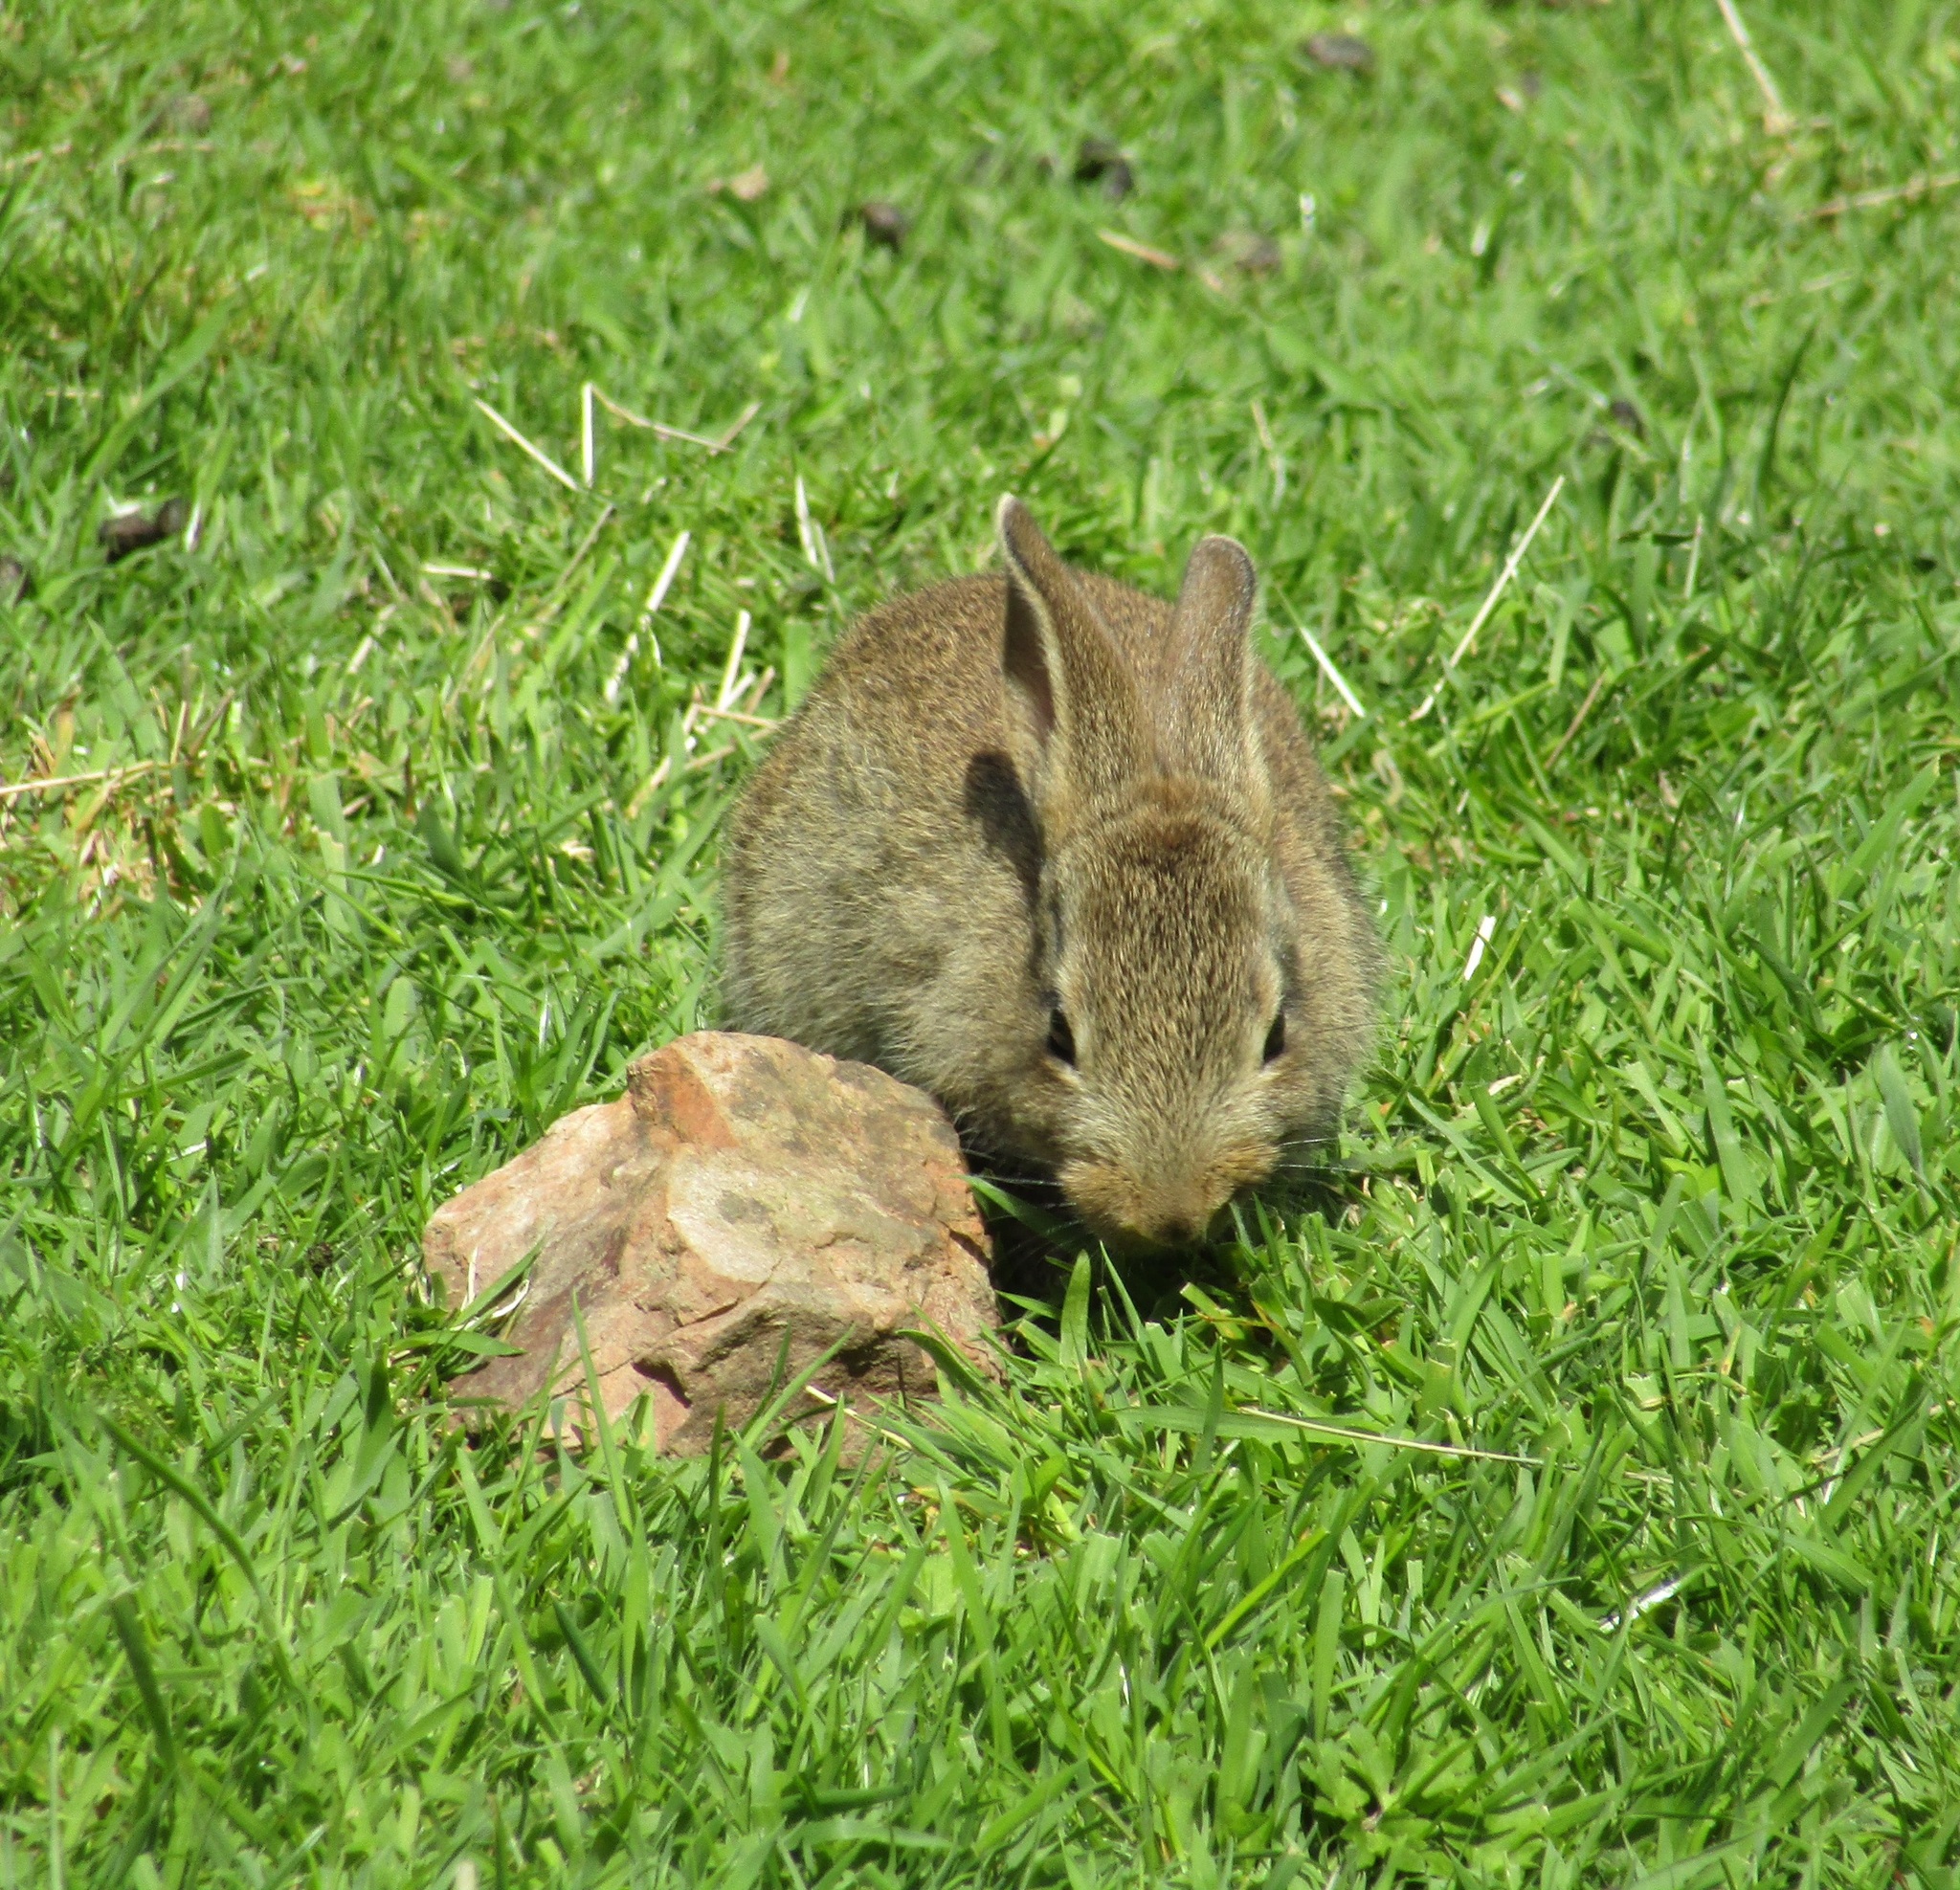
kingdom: Animalia
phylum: Chordata
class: Mammalia
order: Lagomorpha
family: Leporidae
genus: Oryctolagus
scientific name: Oryctolagus cuniculus
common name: European rabbit
